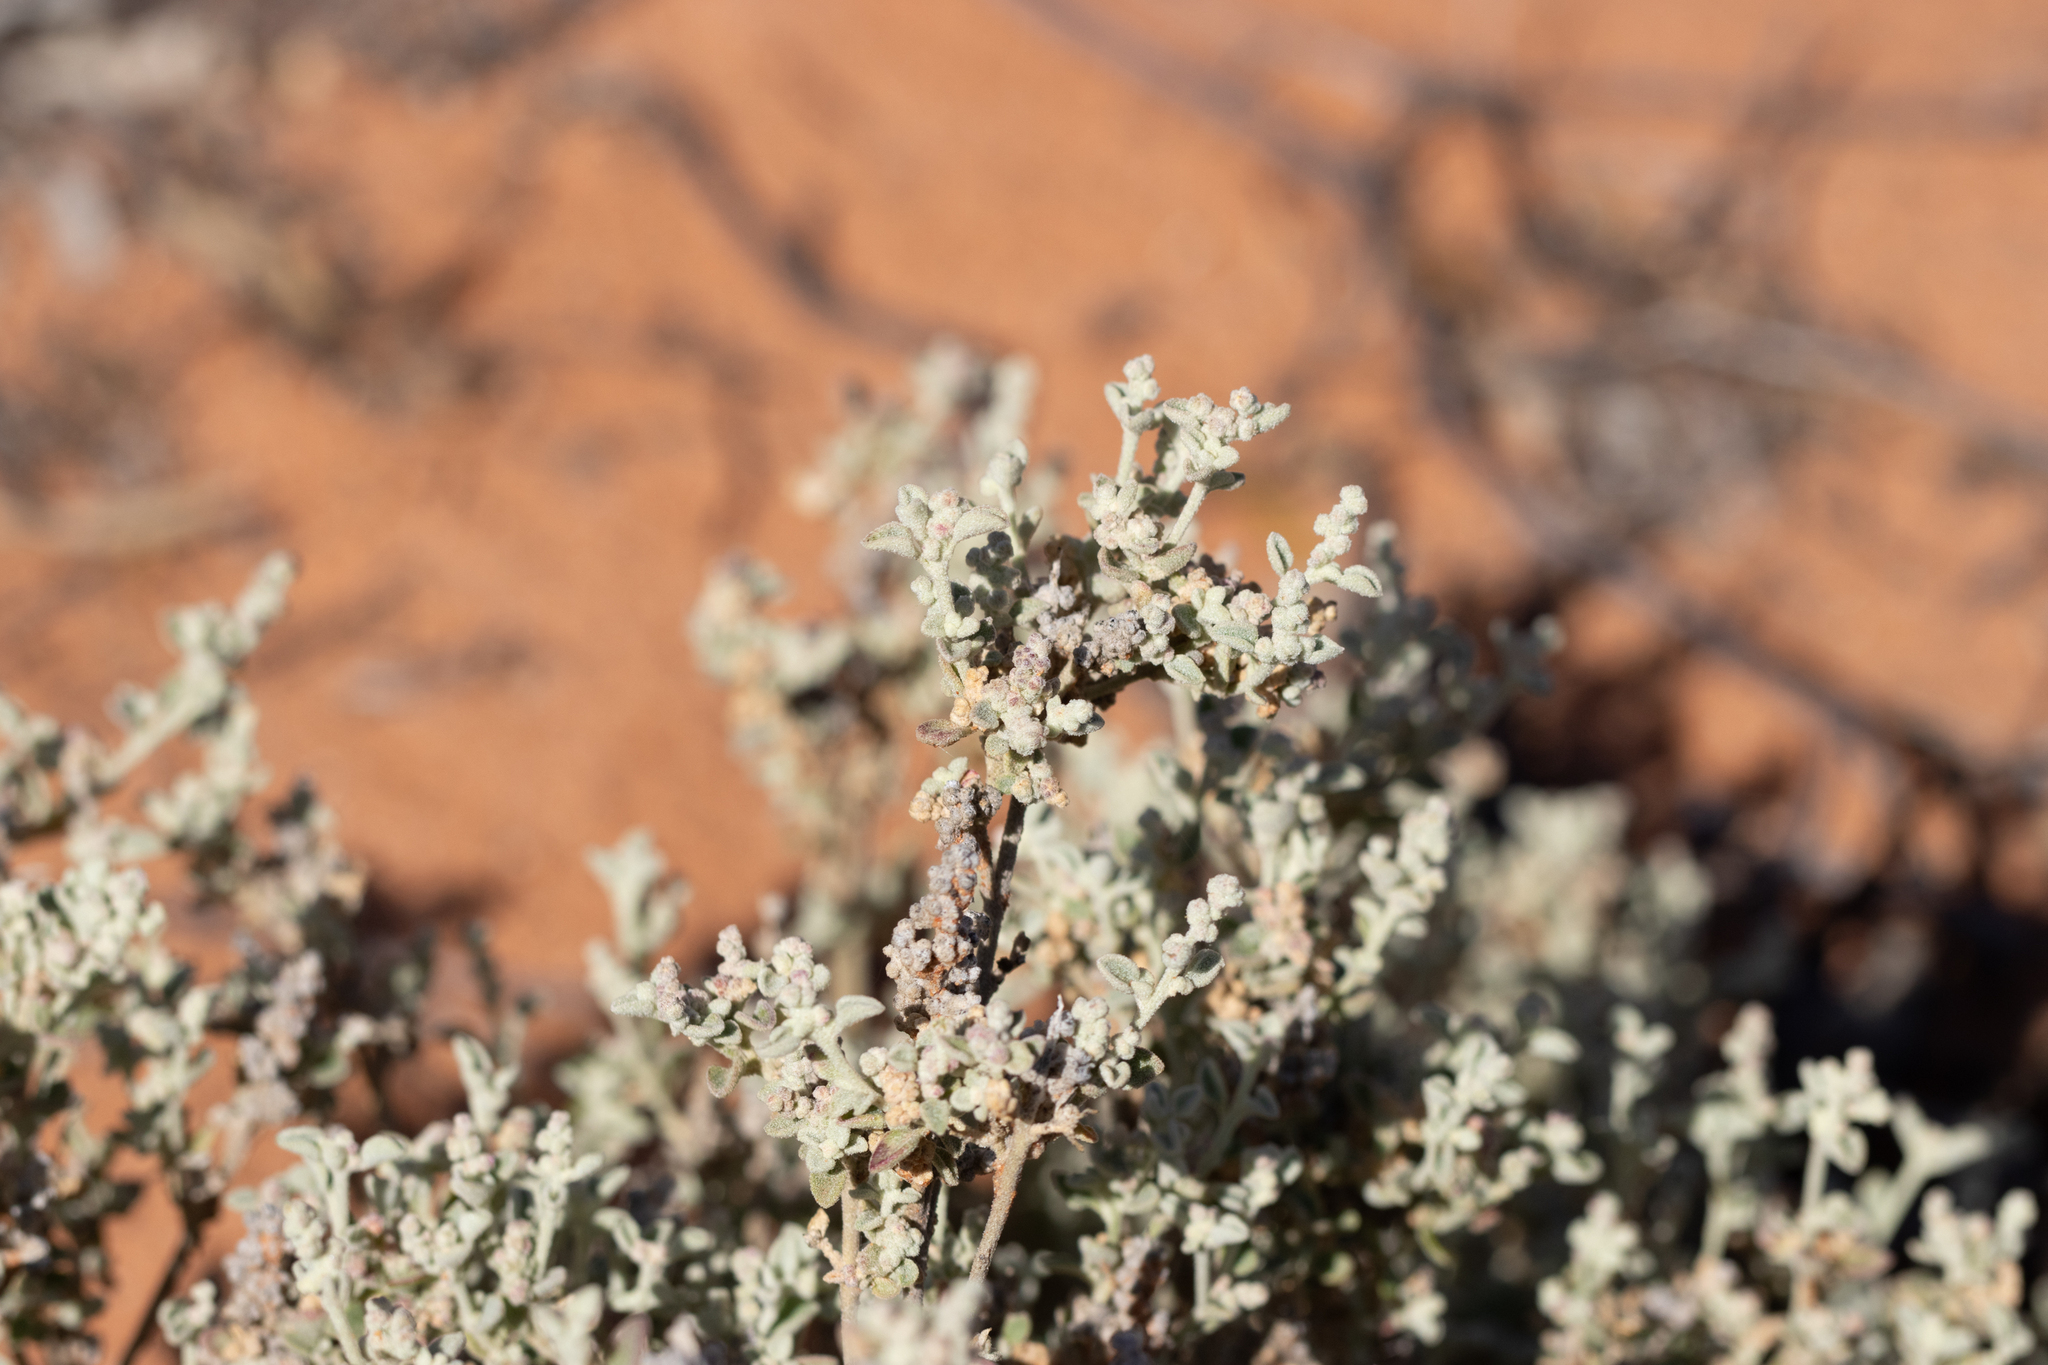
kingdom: Plantae
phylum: Tracheophyta
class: Magnoliopsida
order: Caryophyllales
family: Amaranthaceae
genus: Chenopodium
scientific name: Chenopodium desertorum
